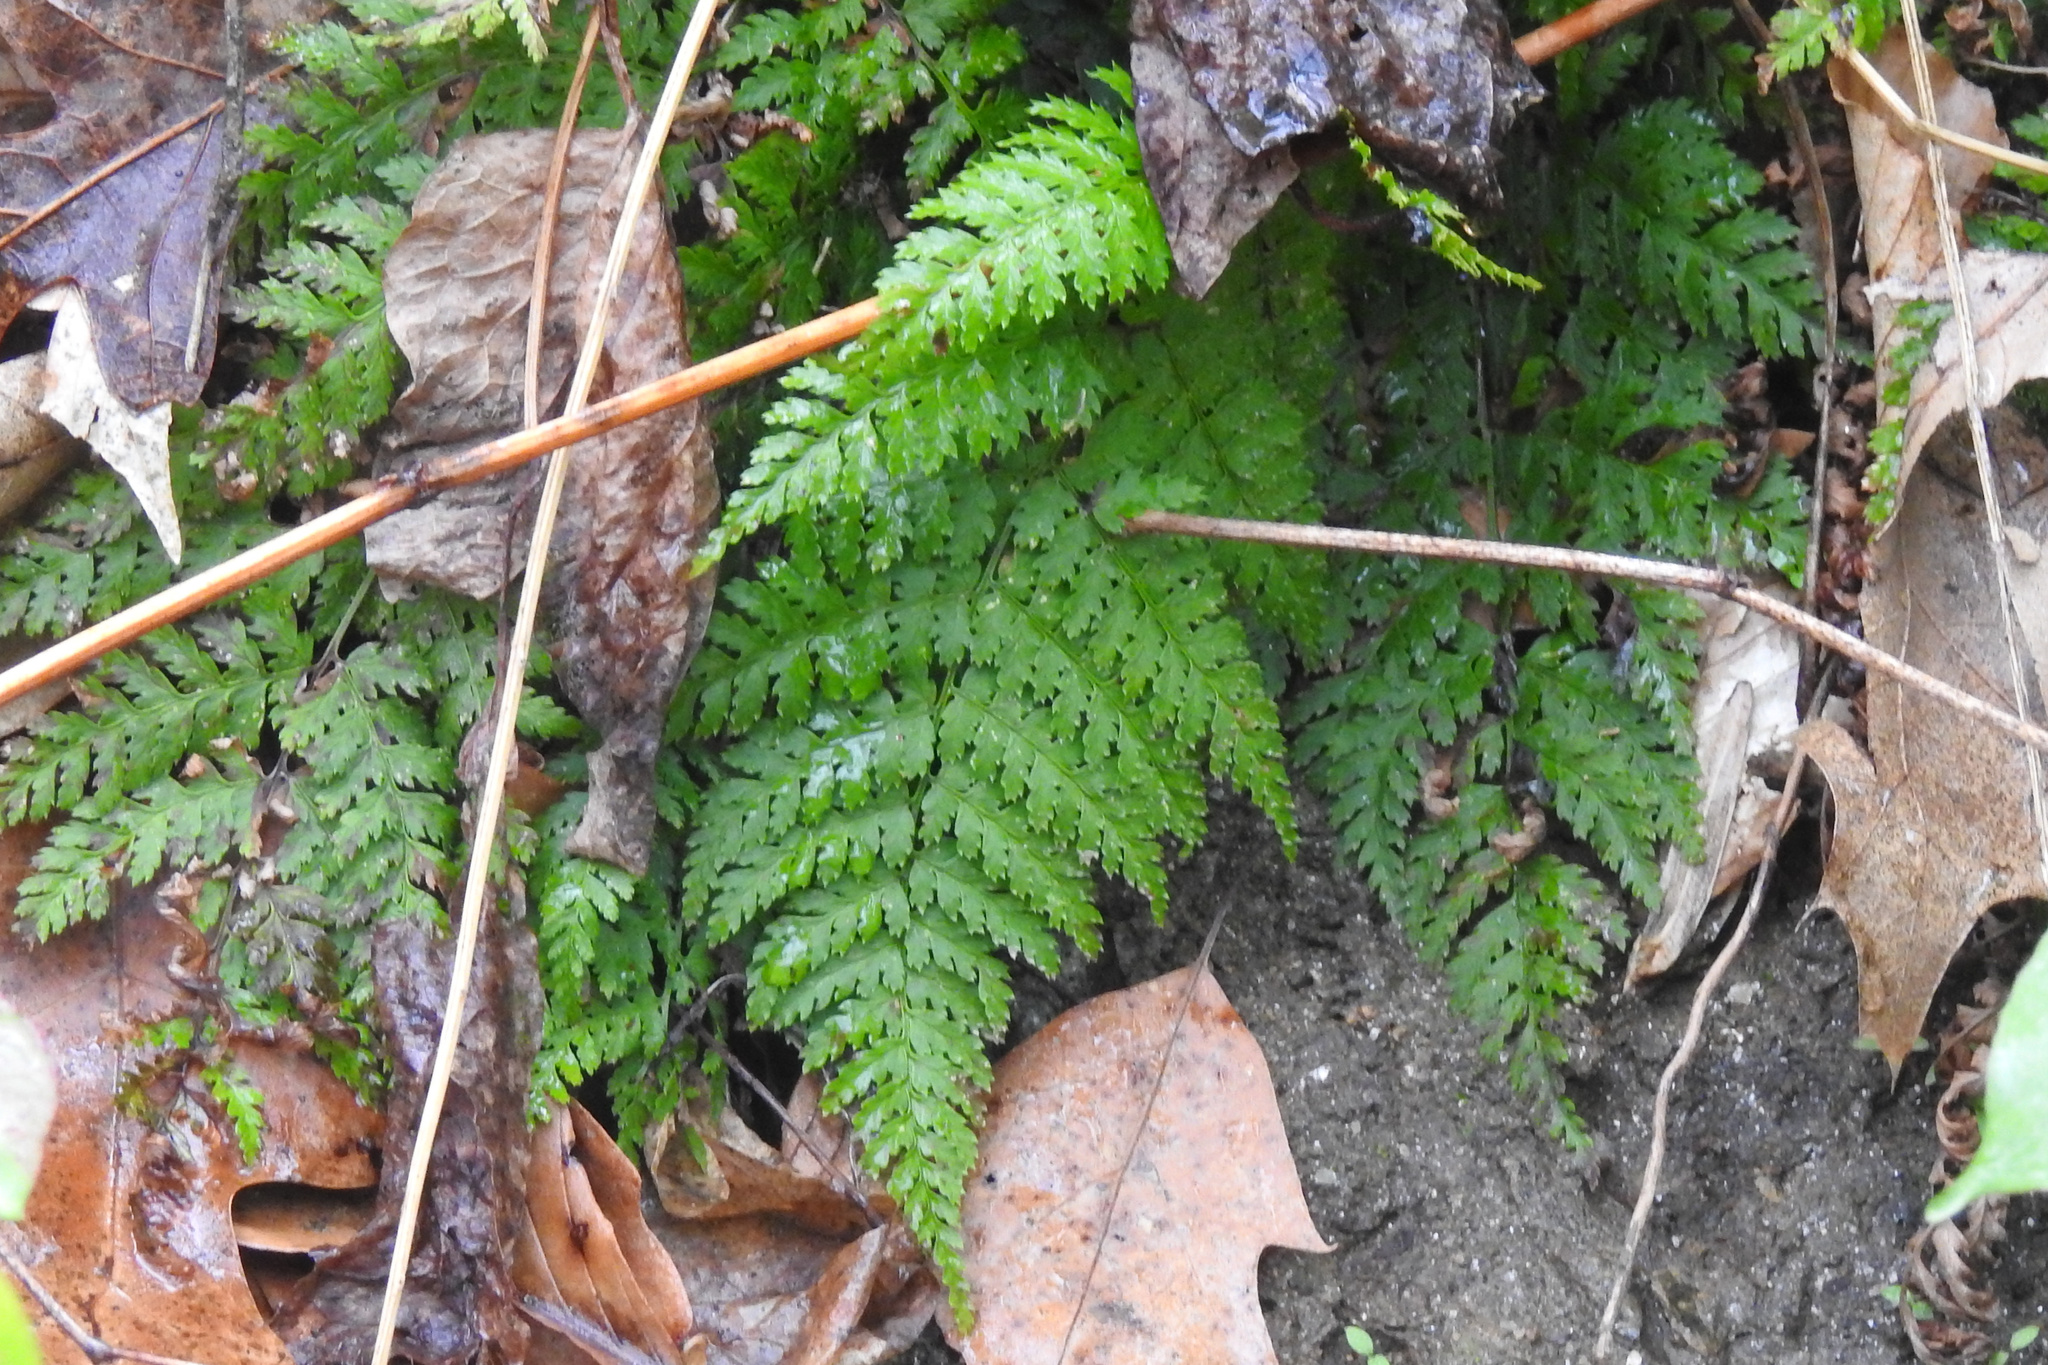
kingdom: Plantae
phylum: Tracheophyta
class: Polypodiopsida
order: Polypodiales
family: Dryopteridaceae
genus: Dryopteris
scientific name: Dryopteris intermedia
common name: Evergreen wood fern
